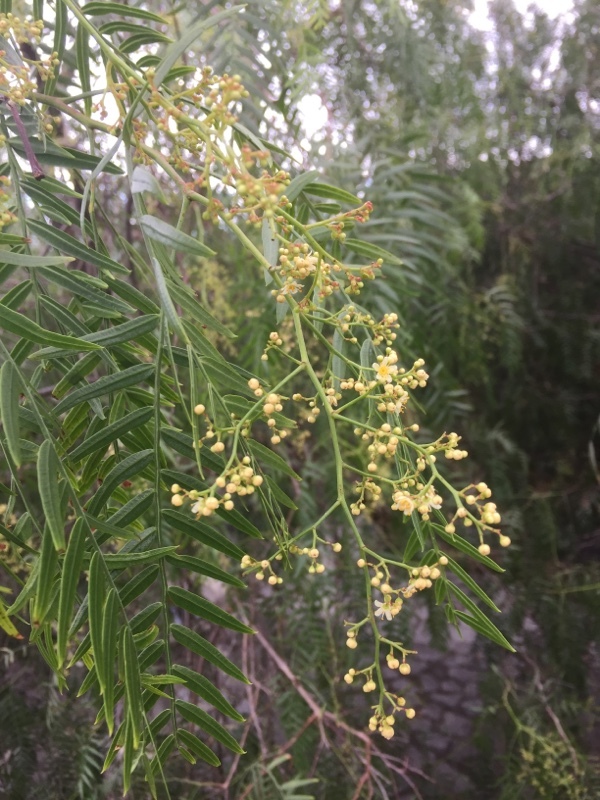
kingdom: Plantae
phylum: Tracheophyta
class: Magnoliopsida
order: Sapindales
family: Anacardiaceae
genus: Schinus
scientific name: Schinus molle
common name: Peruvian peppertree
